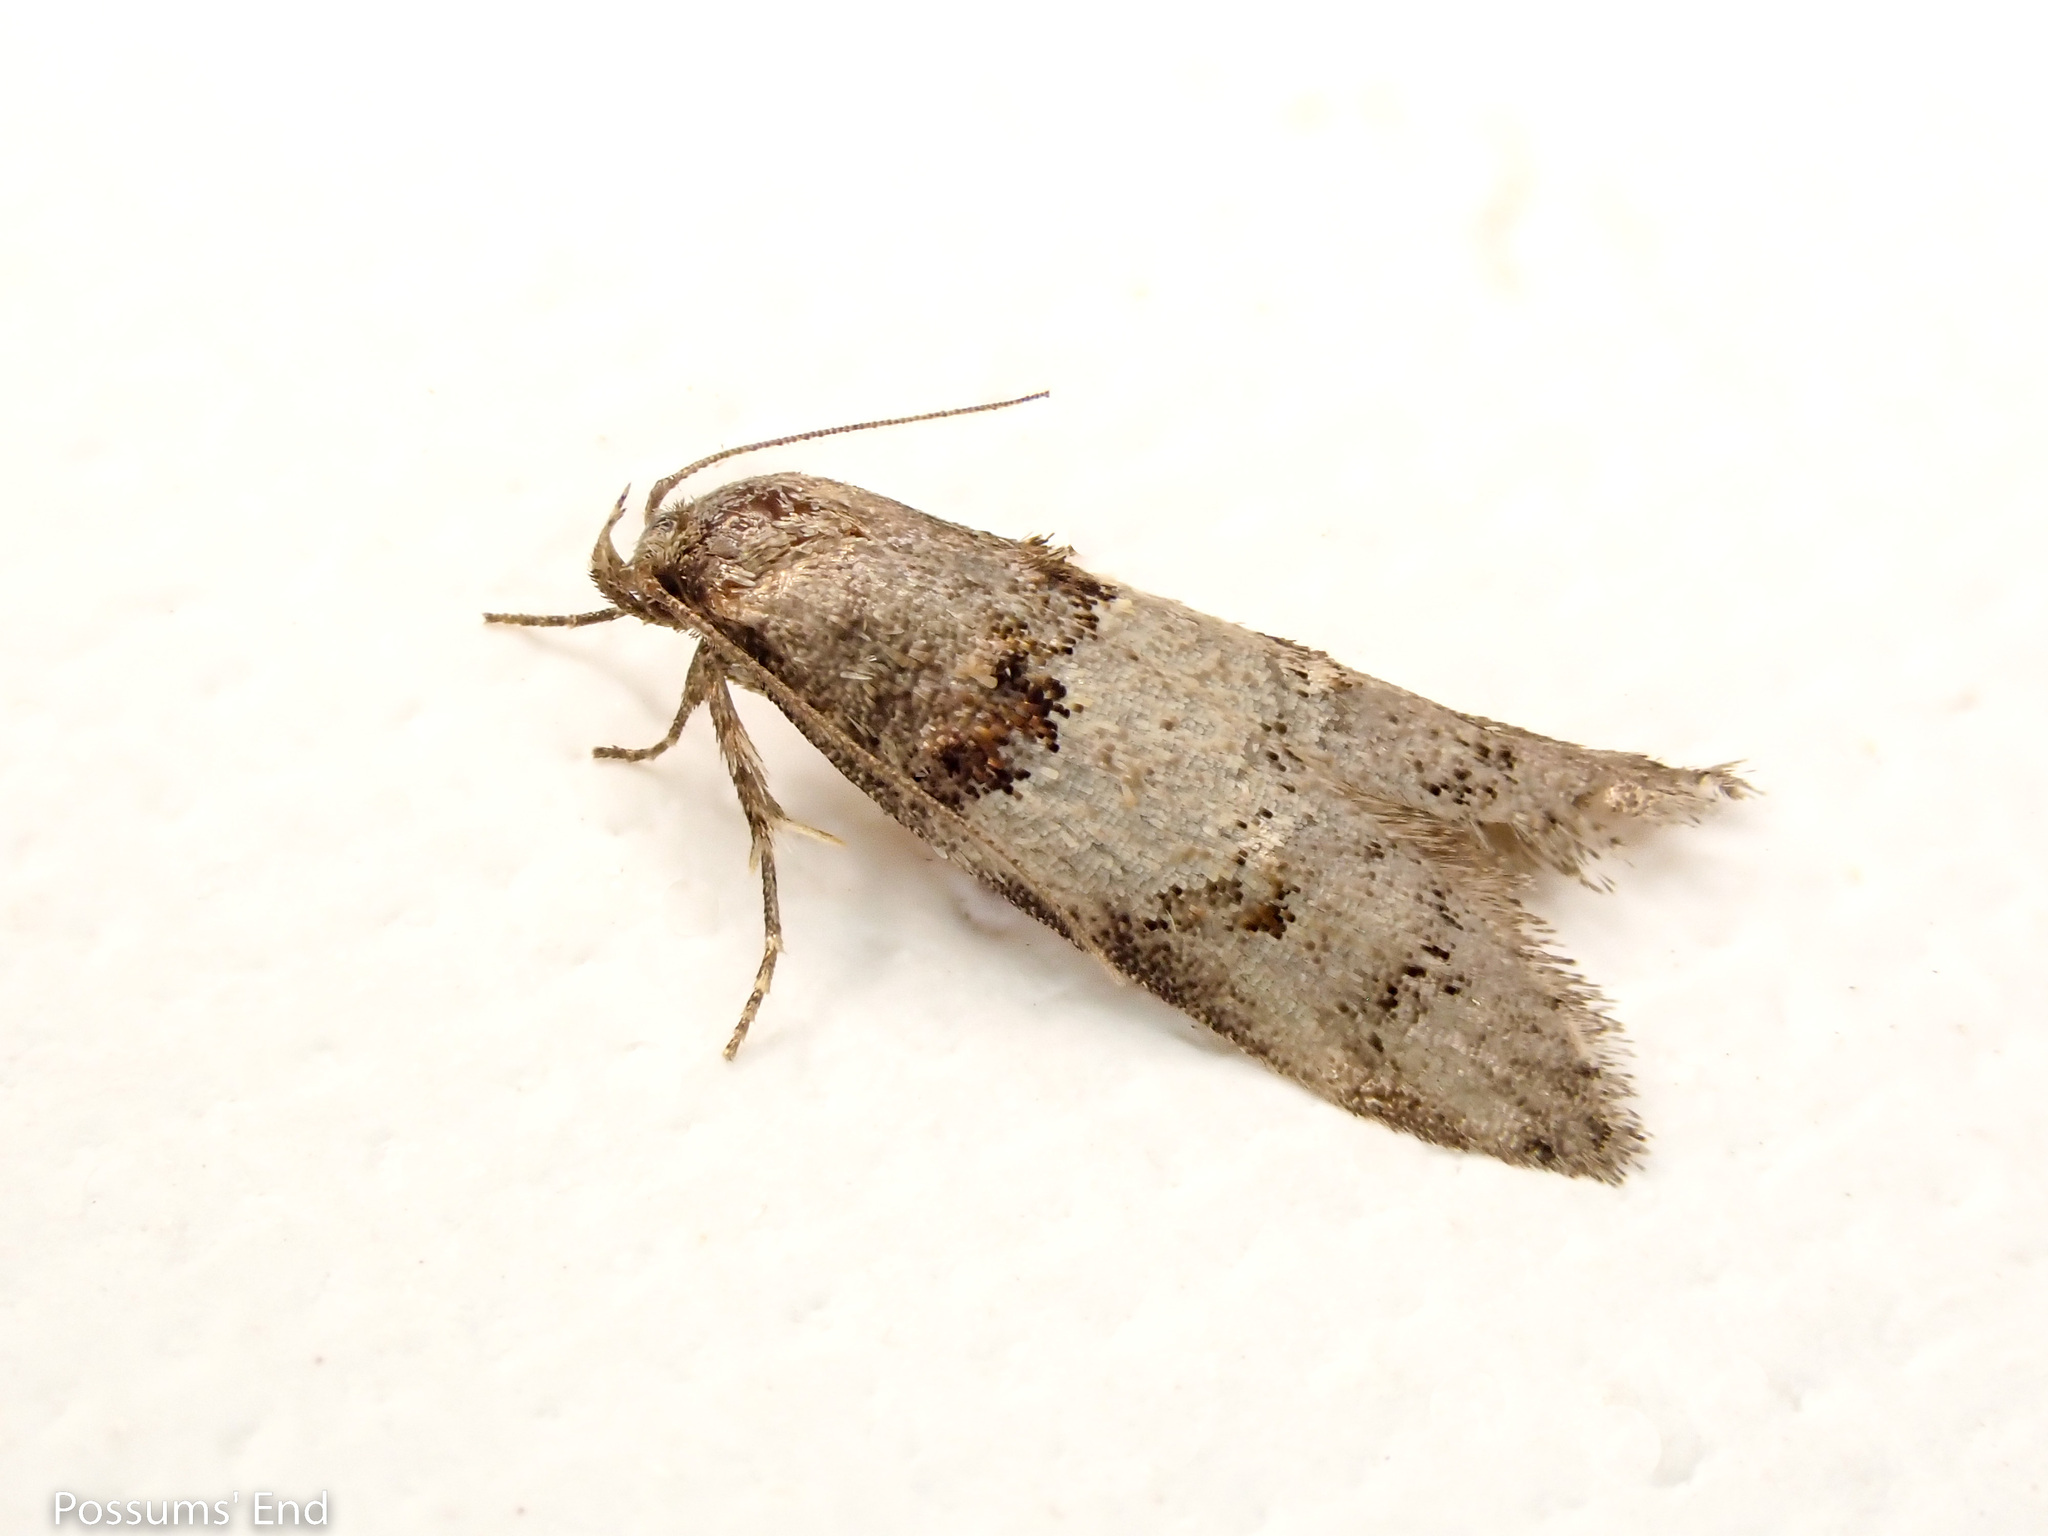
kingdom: Animalia
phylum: Arthropoda
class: Insecta
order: Lepidoptera
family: Oecophoridae
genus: Trachypepla
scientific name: Trachypepla contritella
